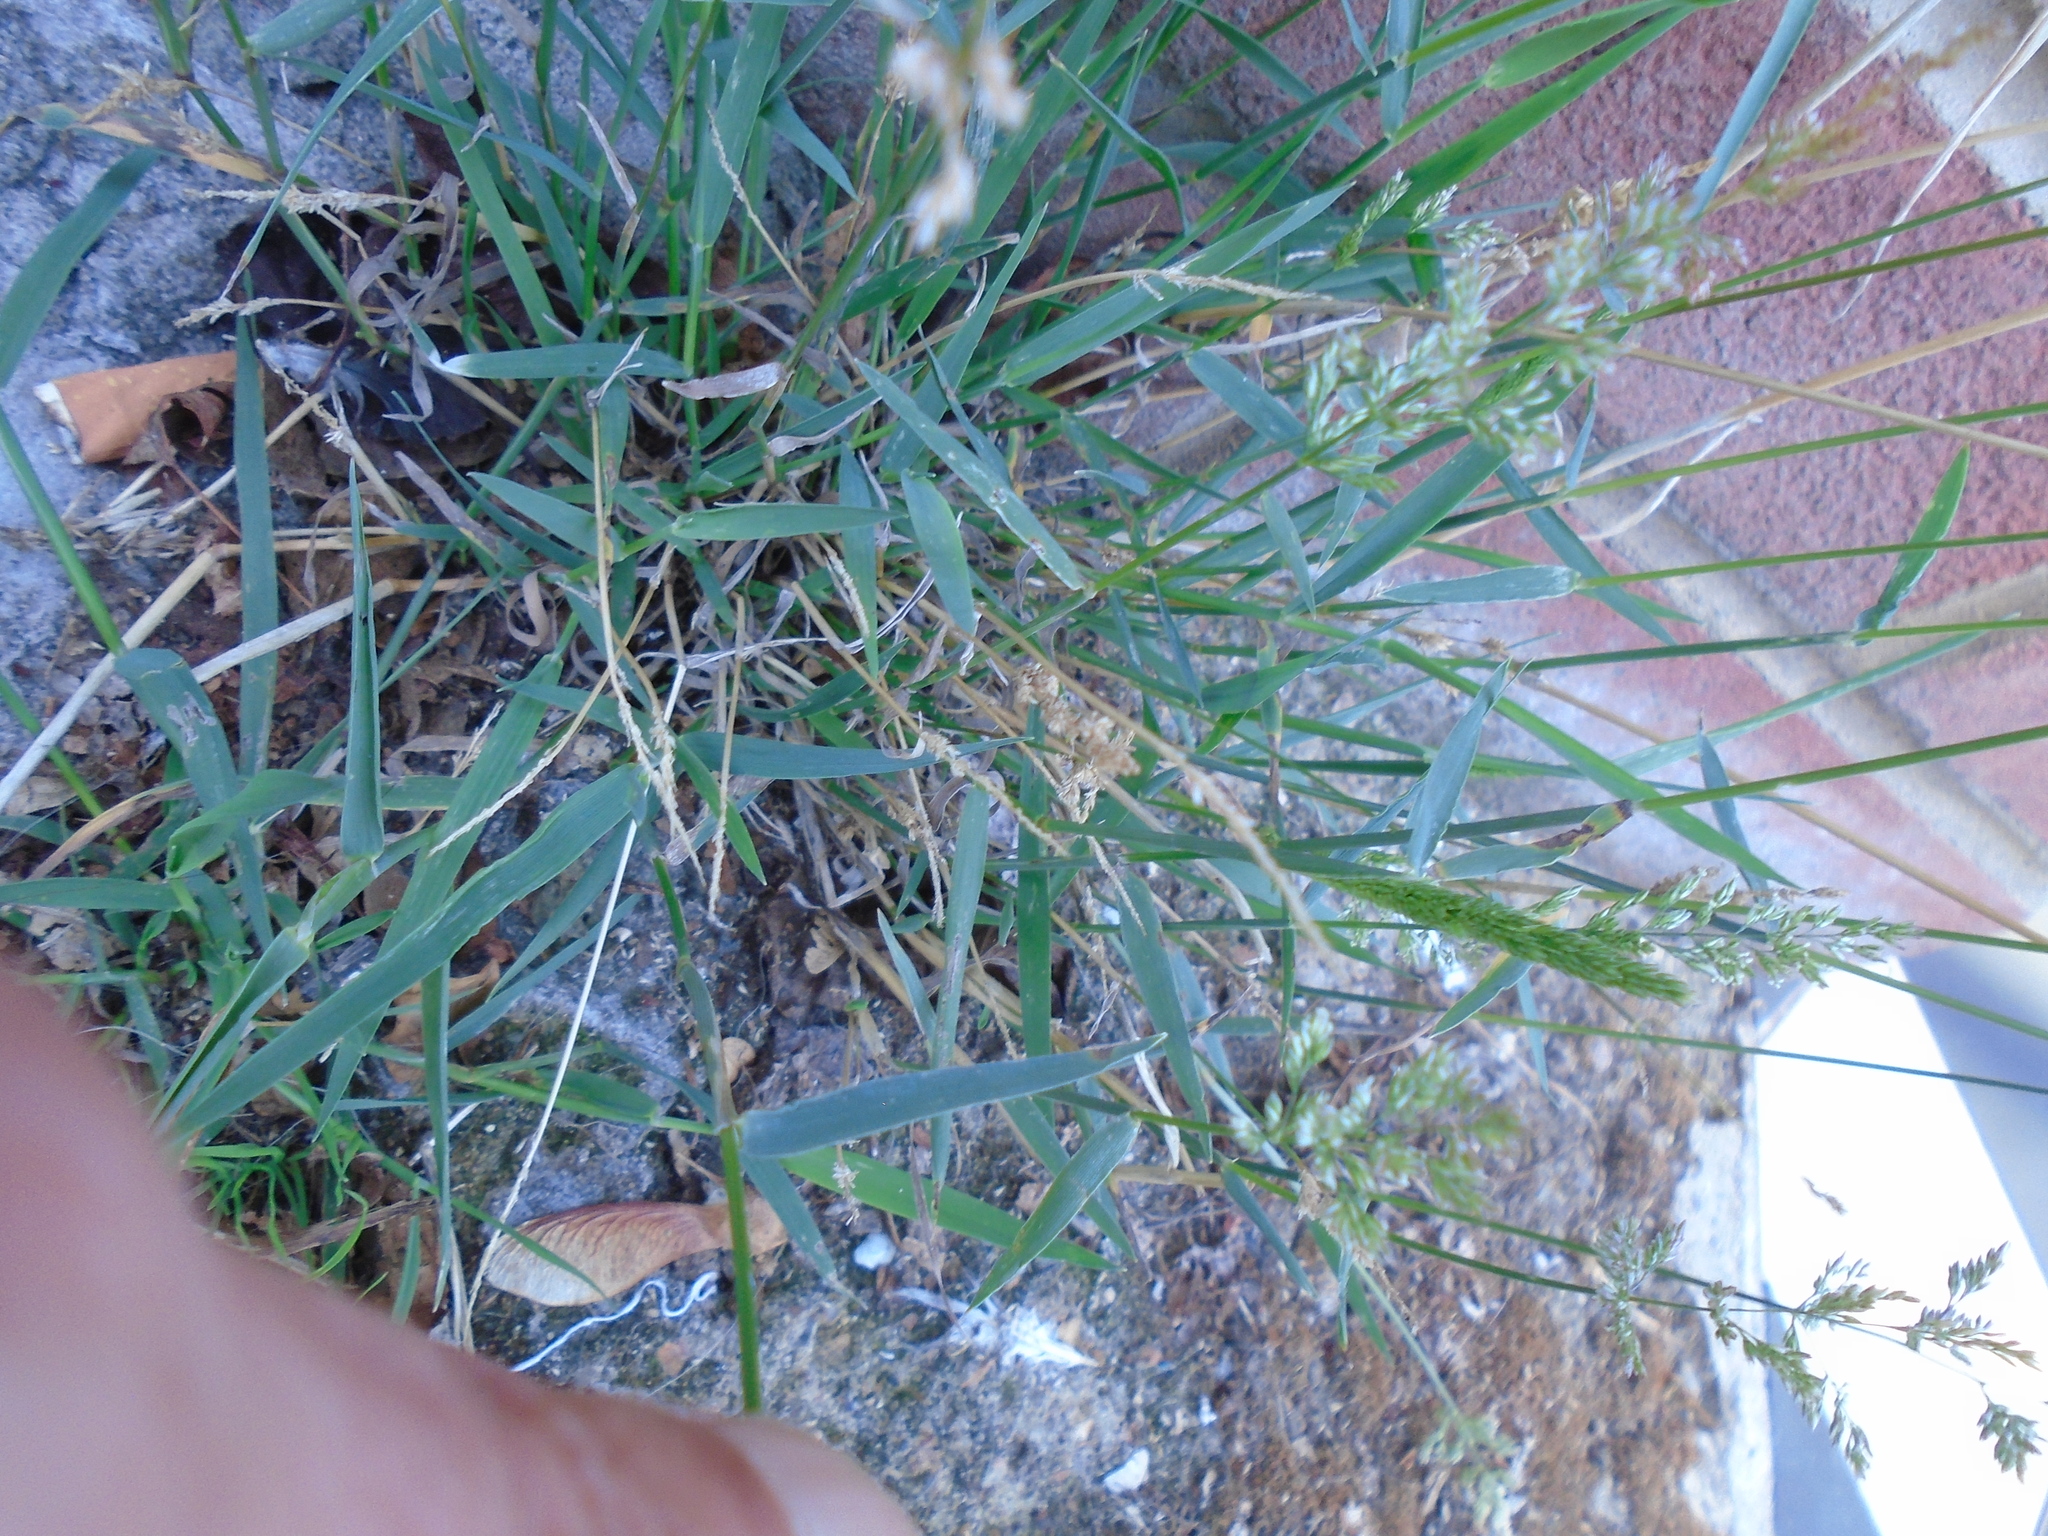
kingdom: Plantae
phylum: Tracheophyta
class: Liliopsida
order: Poales
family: Poaceae
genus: Polypogon
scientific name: Polypogon viridis
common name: Water bent
